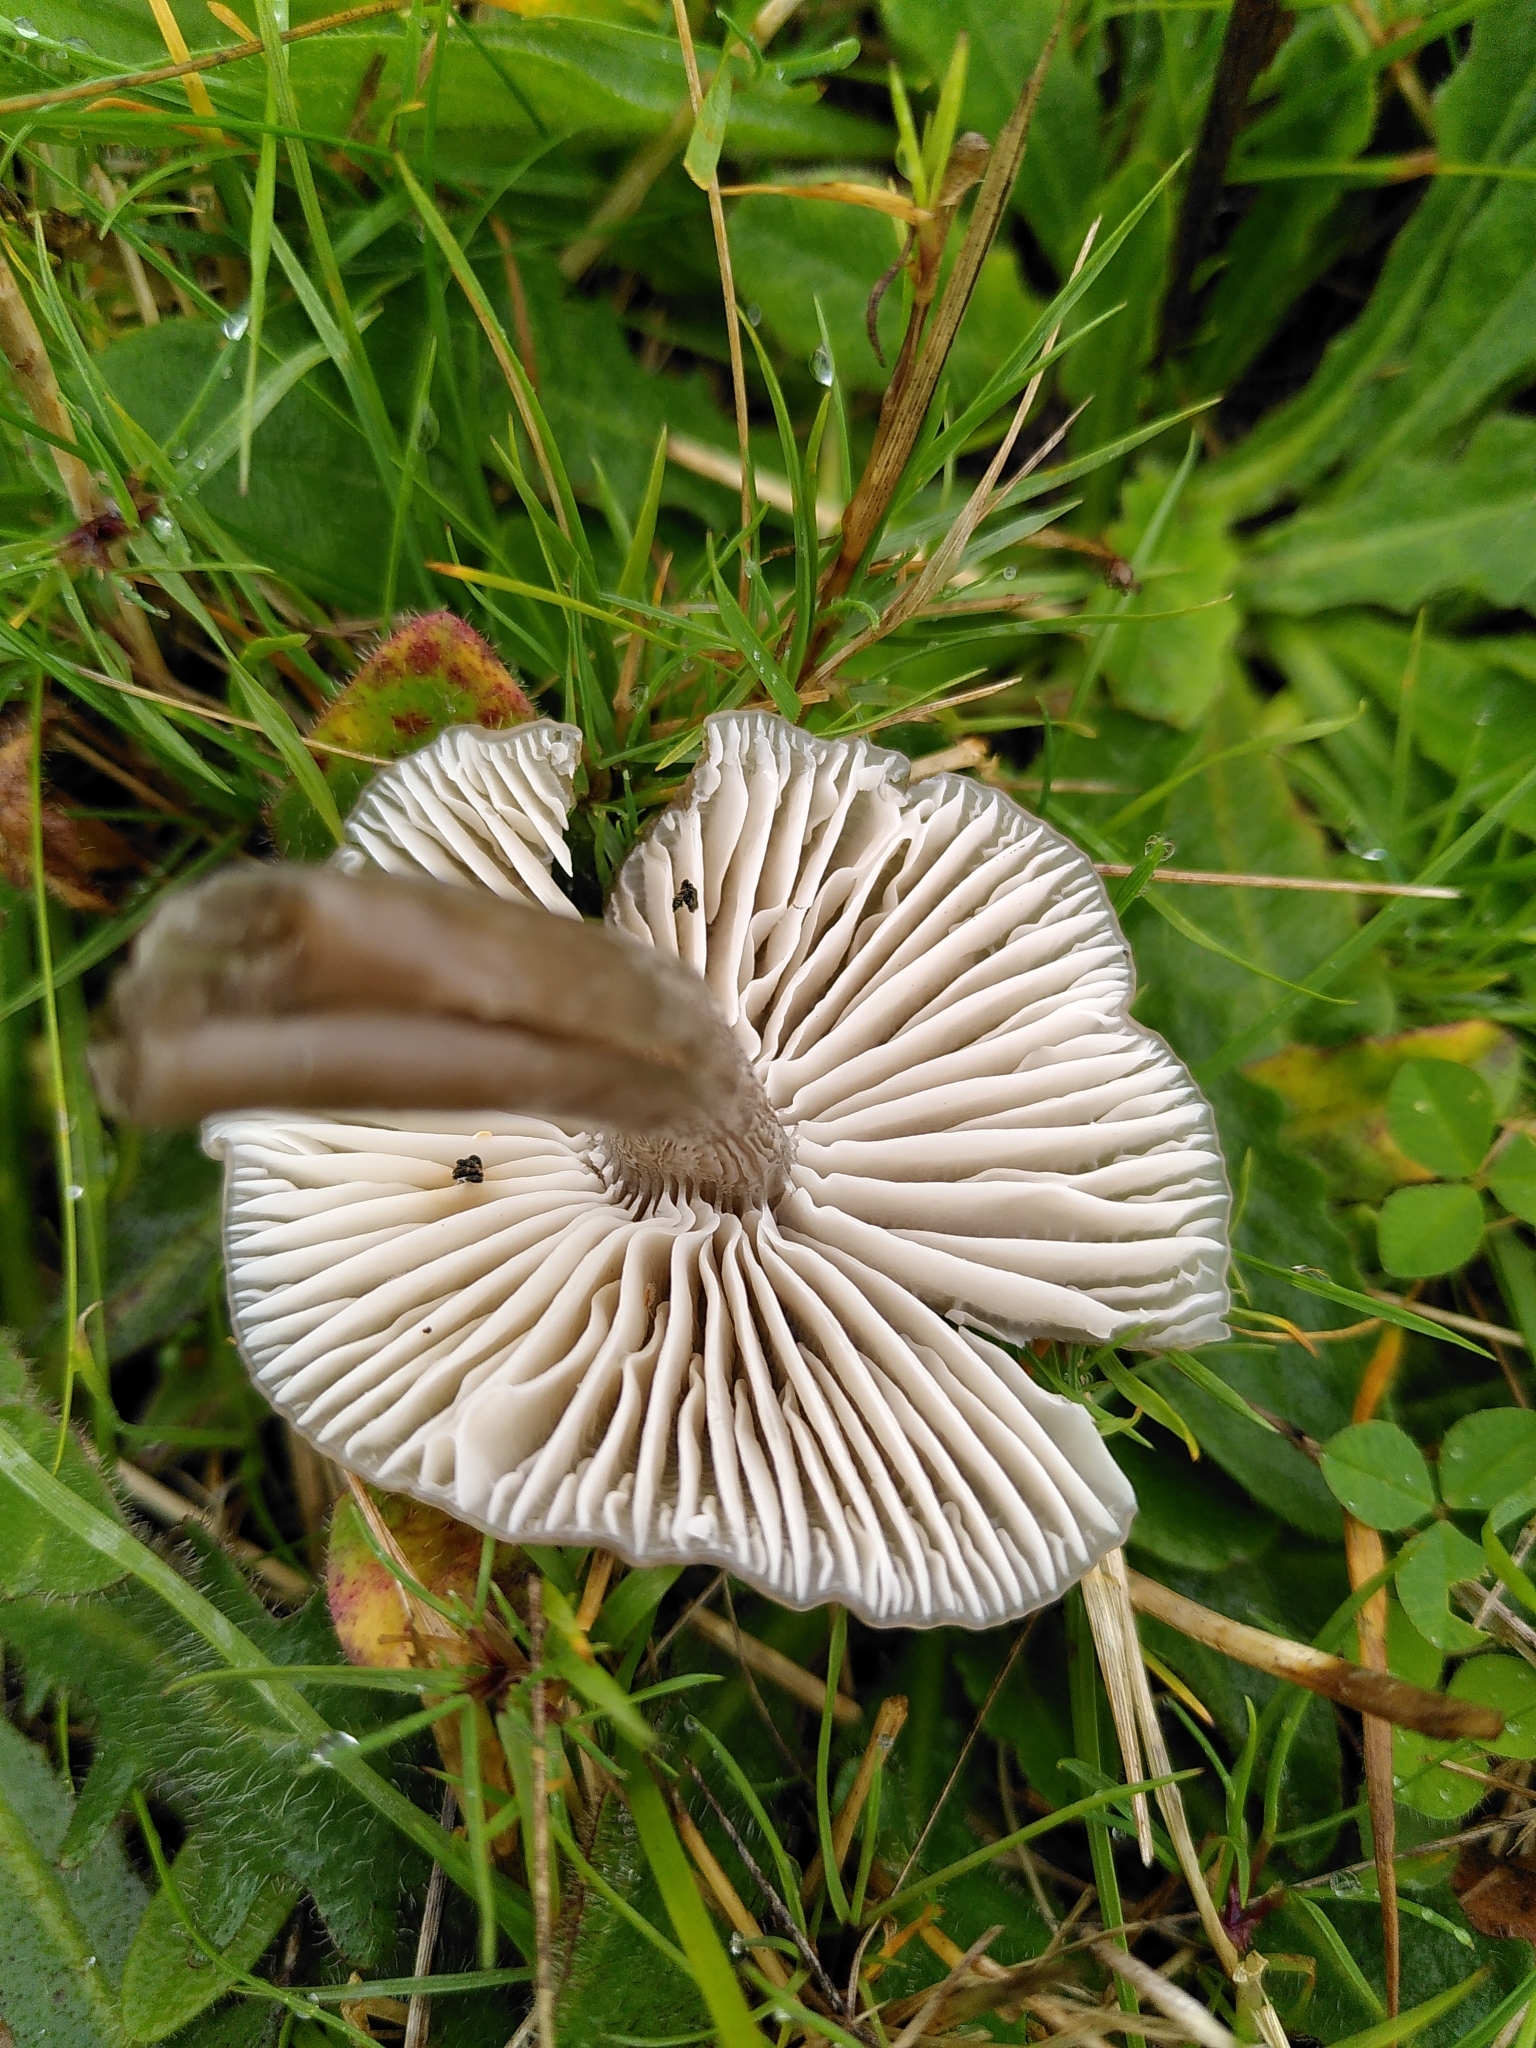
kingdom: Fungi
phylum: Basidiomycota
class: Agaricomycetes
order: Agaricales
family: Hygrophoraceae
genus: Gliophorus
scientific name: Gliophorus irrigatus
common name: Slimy waxcap
